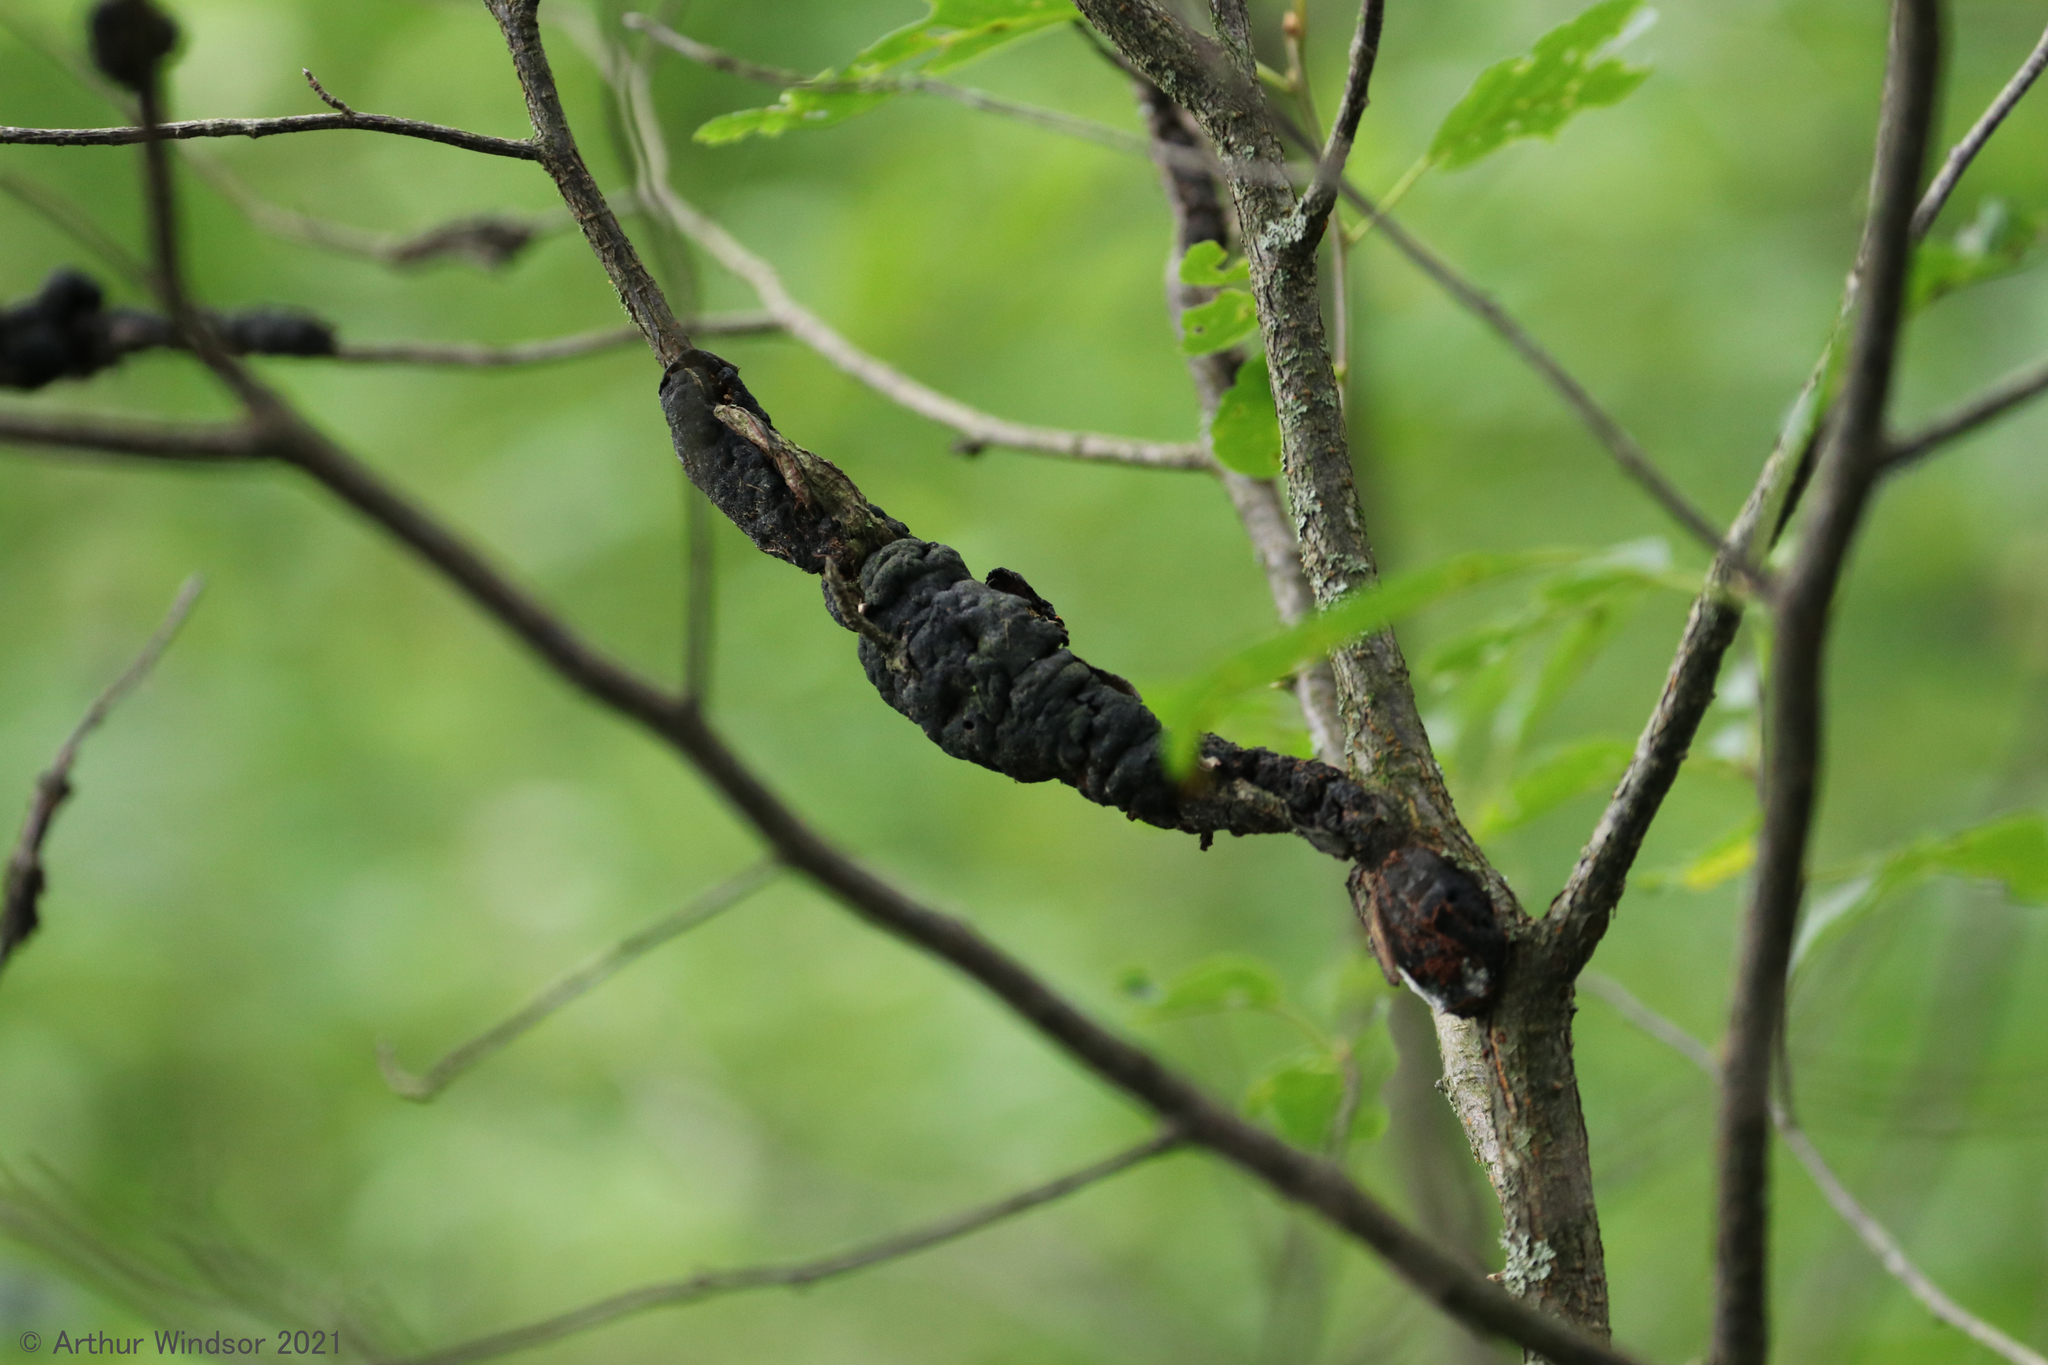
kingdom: Fungi
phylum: Ascomycota
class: Dothideomycetes
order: Venturiales
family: Venturiaceae
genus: Apiosporina
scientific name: Apiosporina morbosa
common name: Black knot
